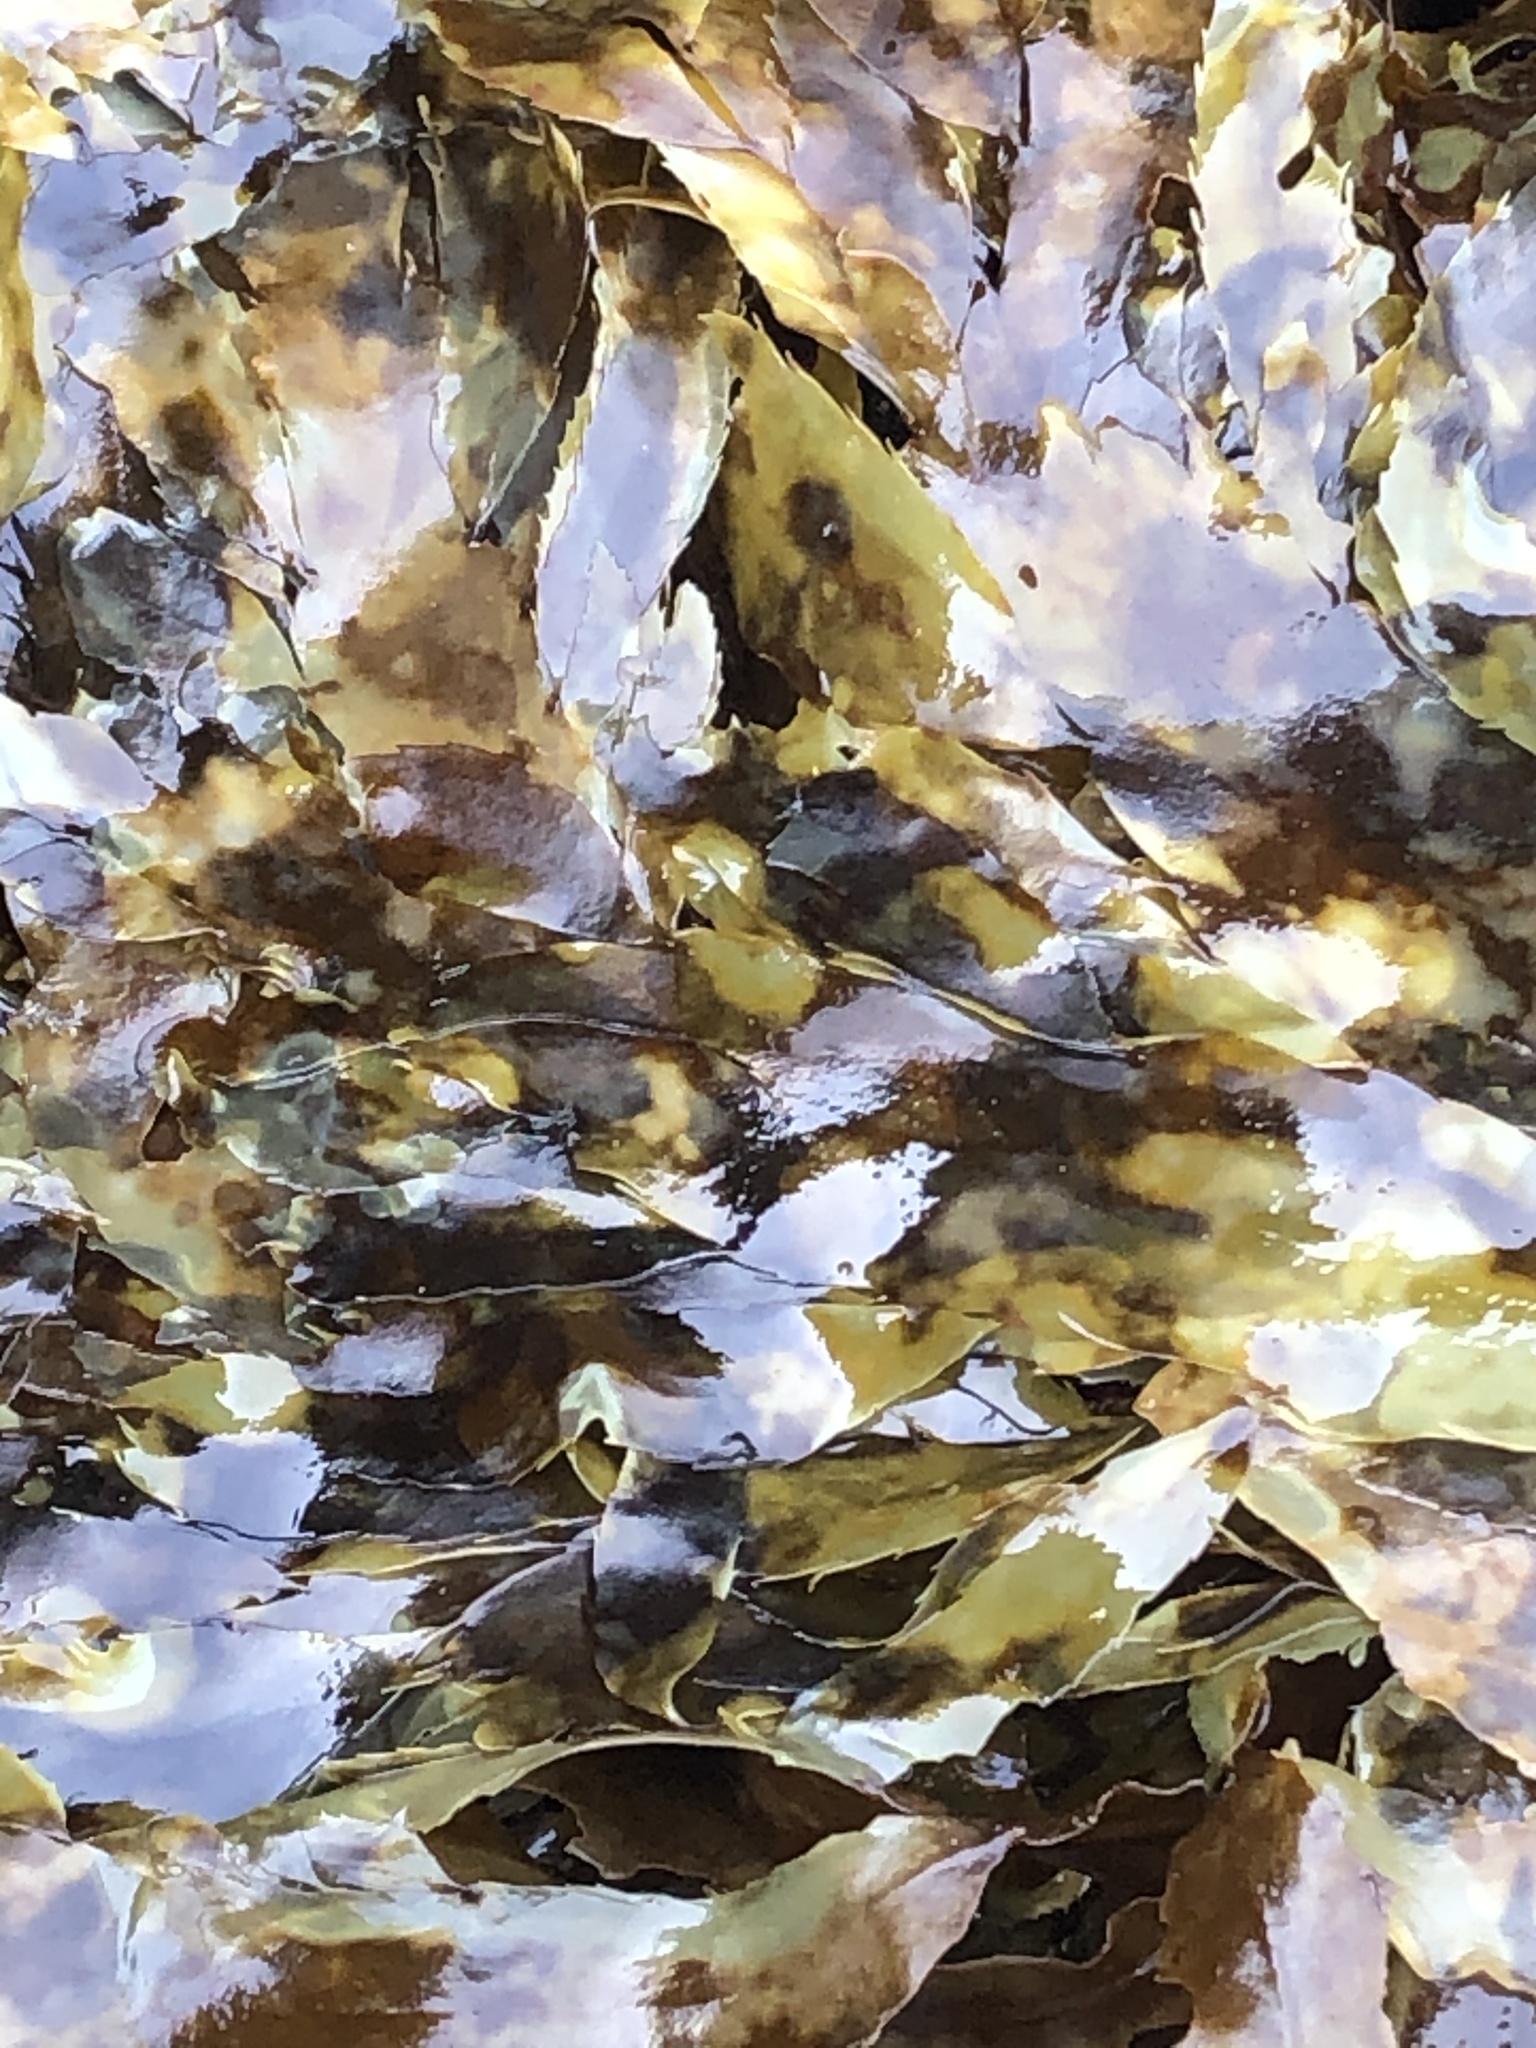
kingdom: Chromista
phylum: Ochrophyta
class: Phaeophyceae
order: Desmarestiales
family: Desmarestiaceae
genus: Desmarestia
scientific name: Desmarestia ligulata
